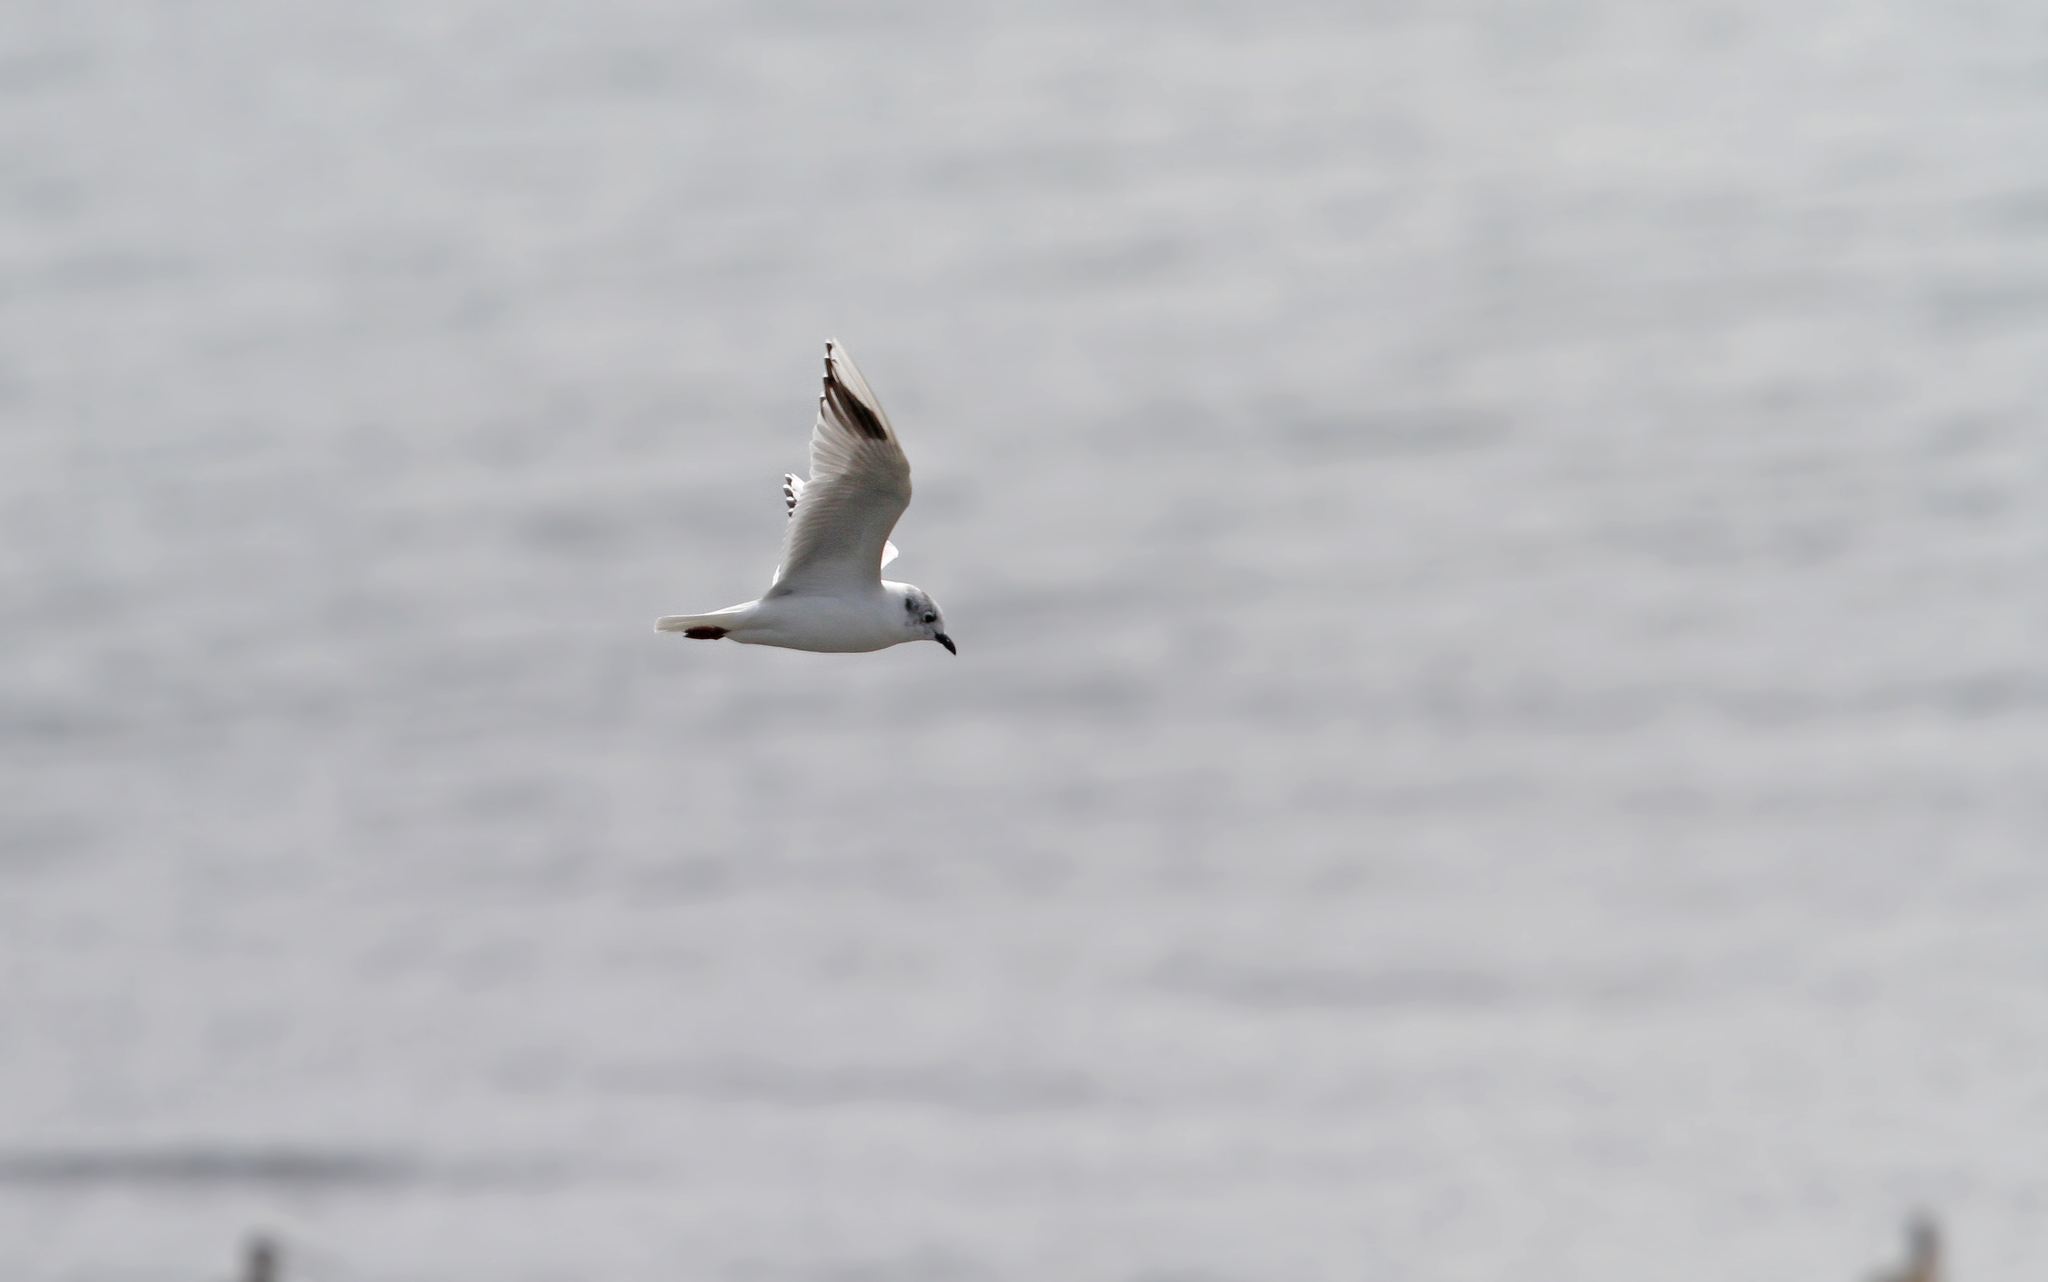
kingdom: Animalia
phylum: Chordata
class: Aves
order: Charadriiformes
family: Laridae
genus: Chroicocephalus
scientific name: Chroicocephalus saundersi
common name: Saunders's gull
